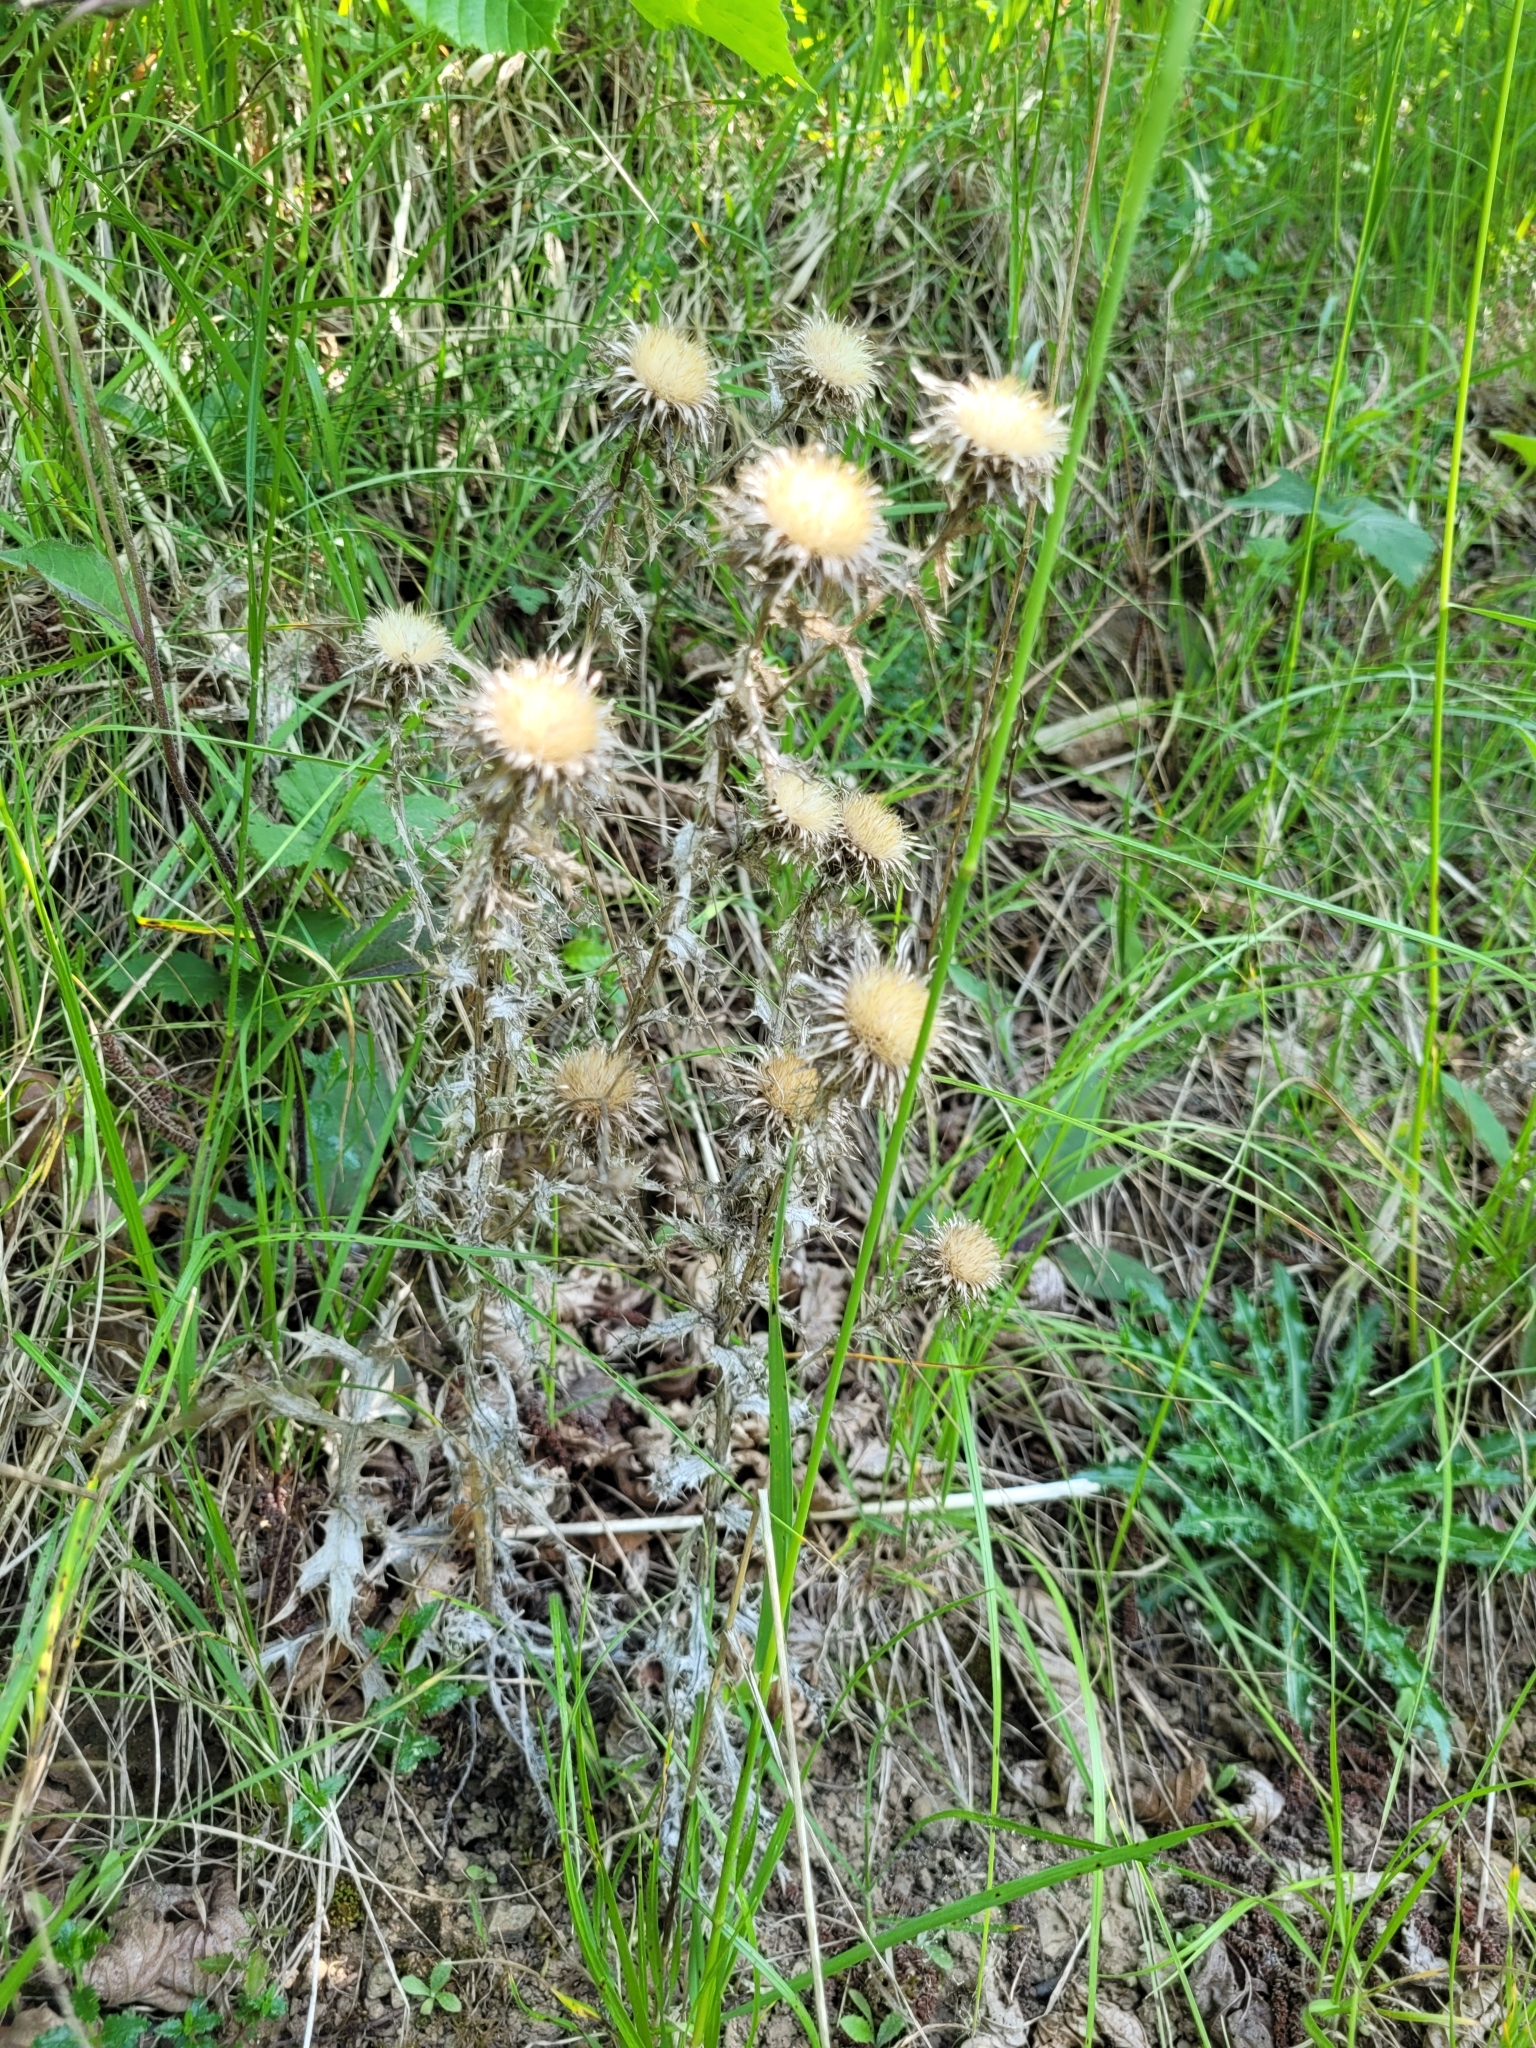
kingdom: Plantae
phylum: Tracheophyta
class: Magnoliopsida
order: Asterales
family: Asteraceae
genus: Carlina
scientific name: Carlina vulgaris
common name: Carline thistle
